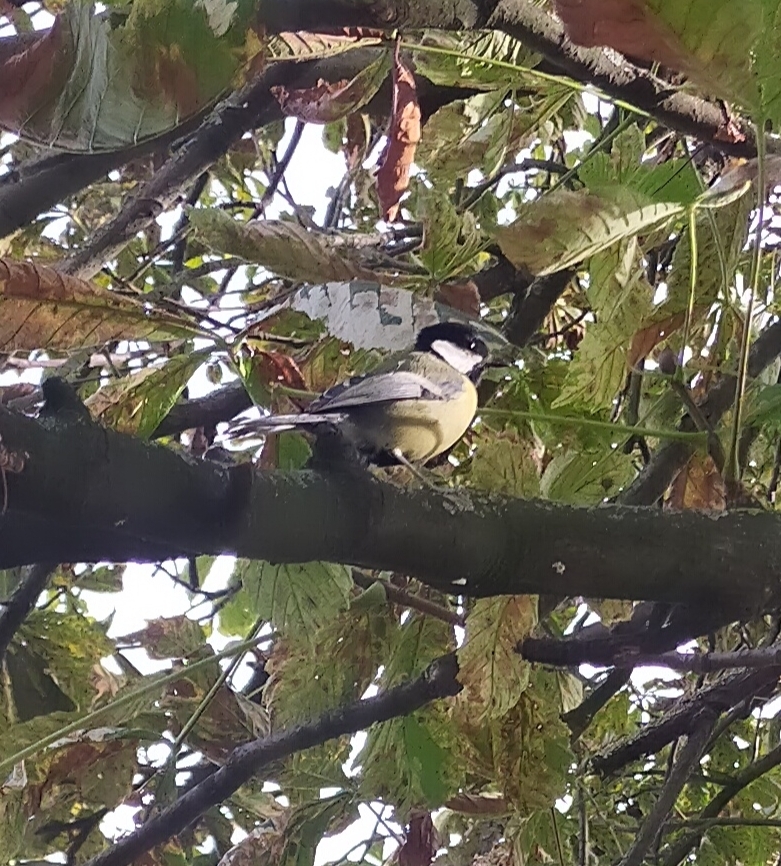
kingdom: Animalia
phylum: Chordata
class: Aves
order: Passeriformes
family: Paridae
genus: Parus
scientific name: Parus major
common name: Great tit
